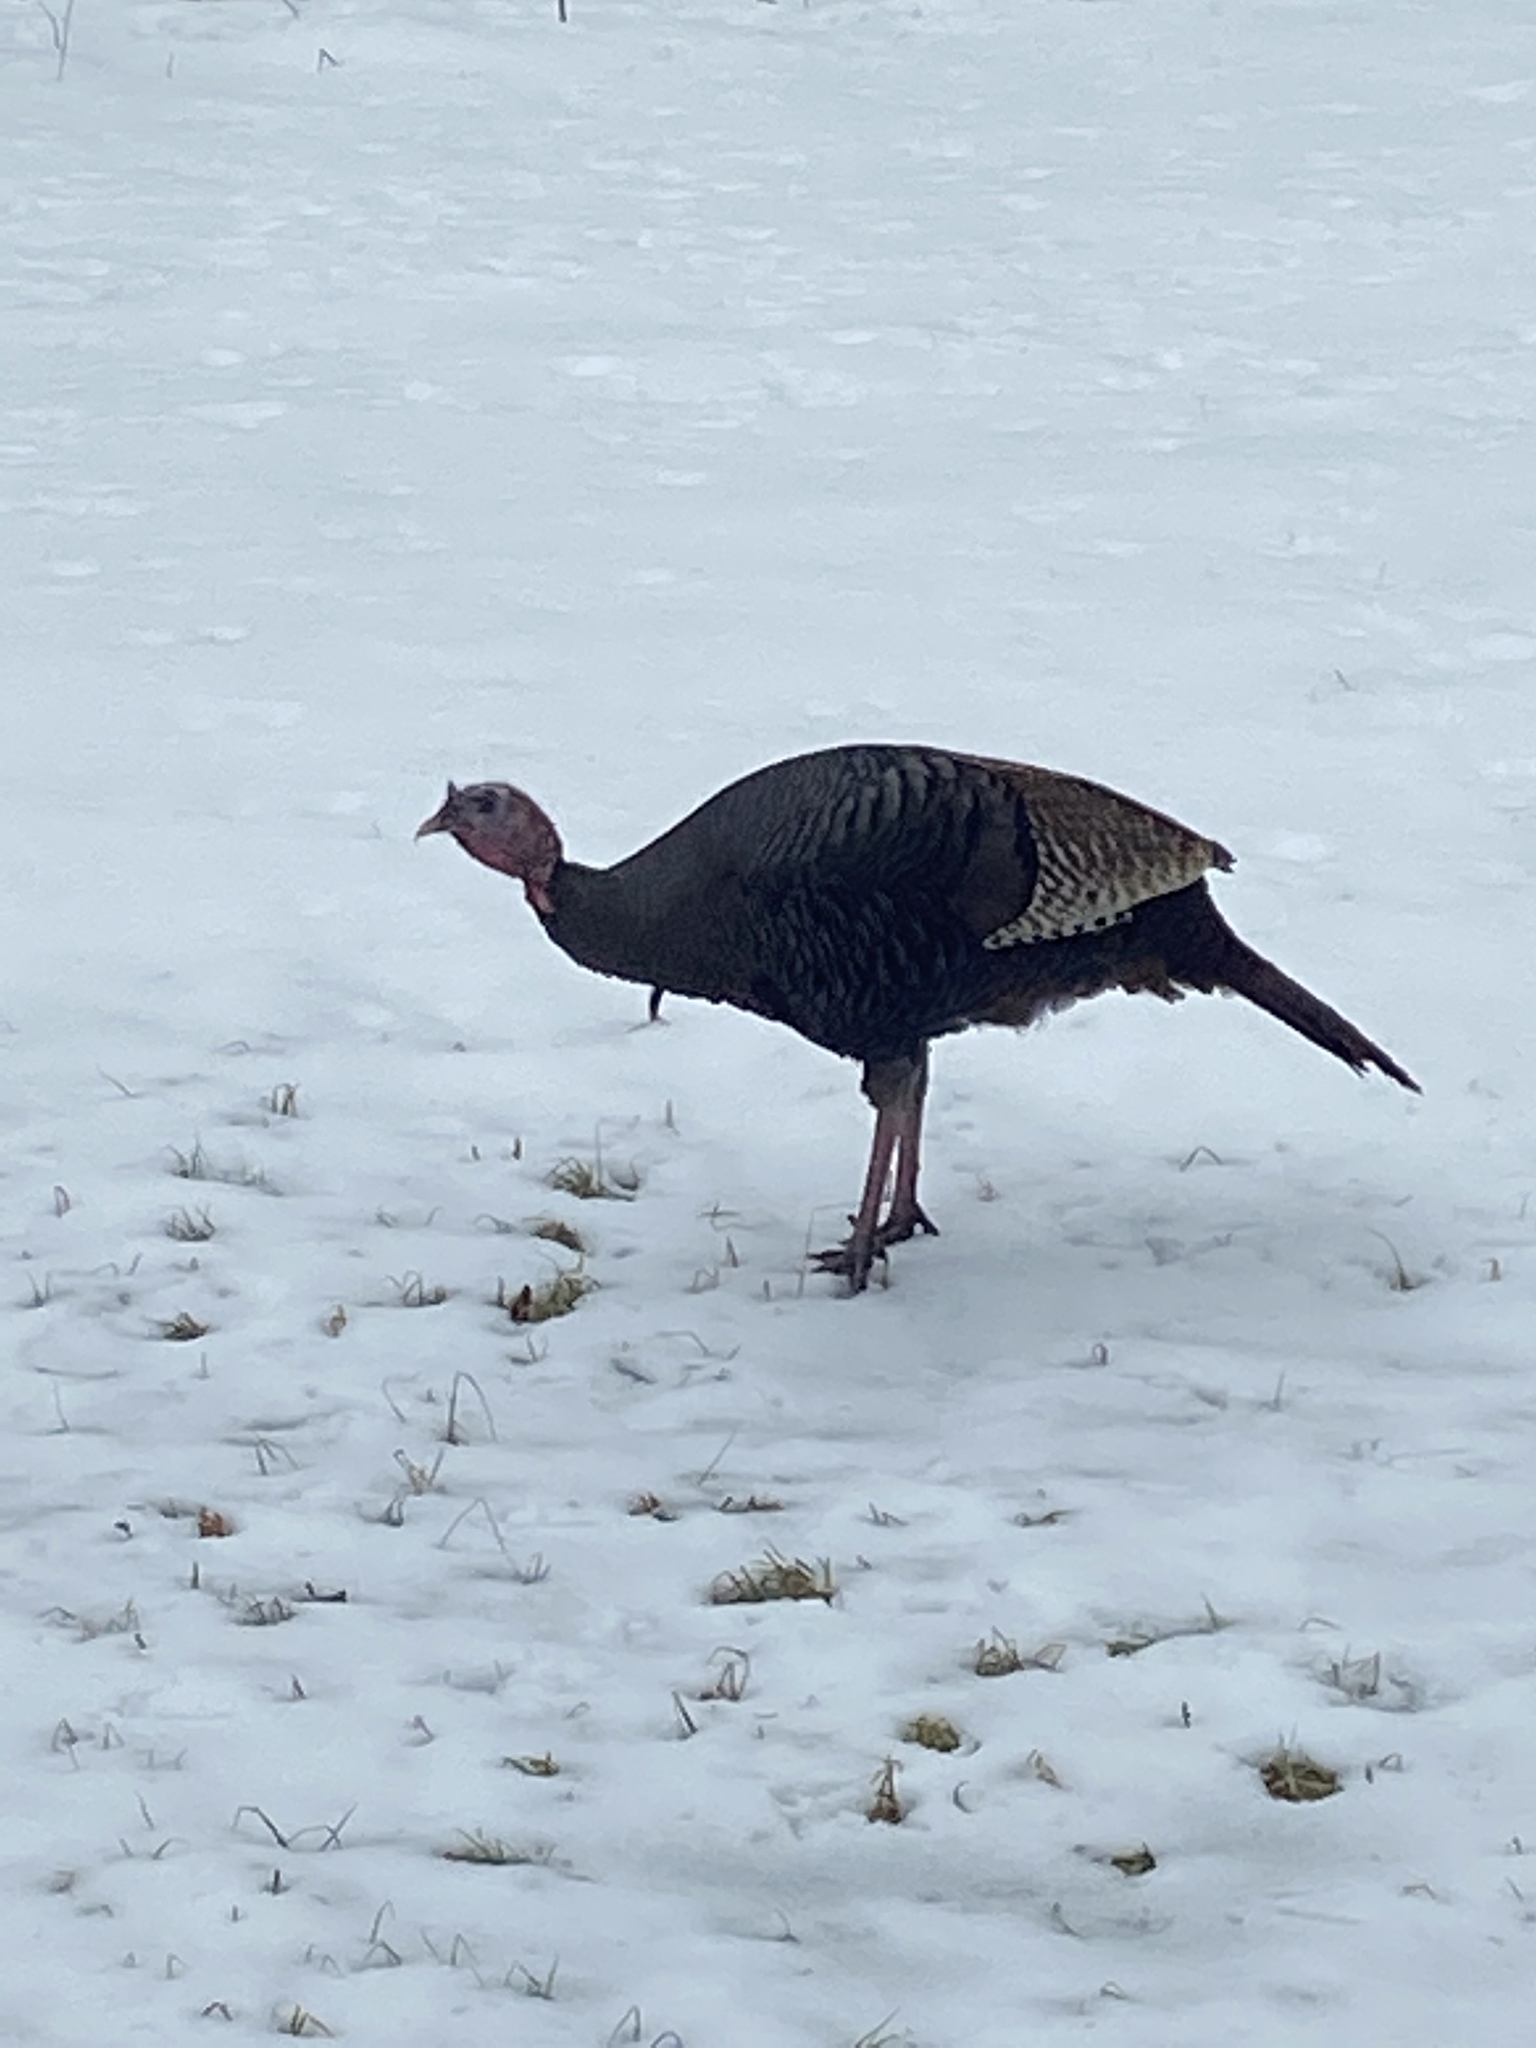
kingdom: Animalia
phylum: Chordata
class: Aves
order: Galliformes
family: Phasianidae
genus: Meleagris
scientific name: Meleagris gallopavo
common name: Wild turkey
